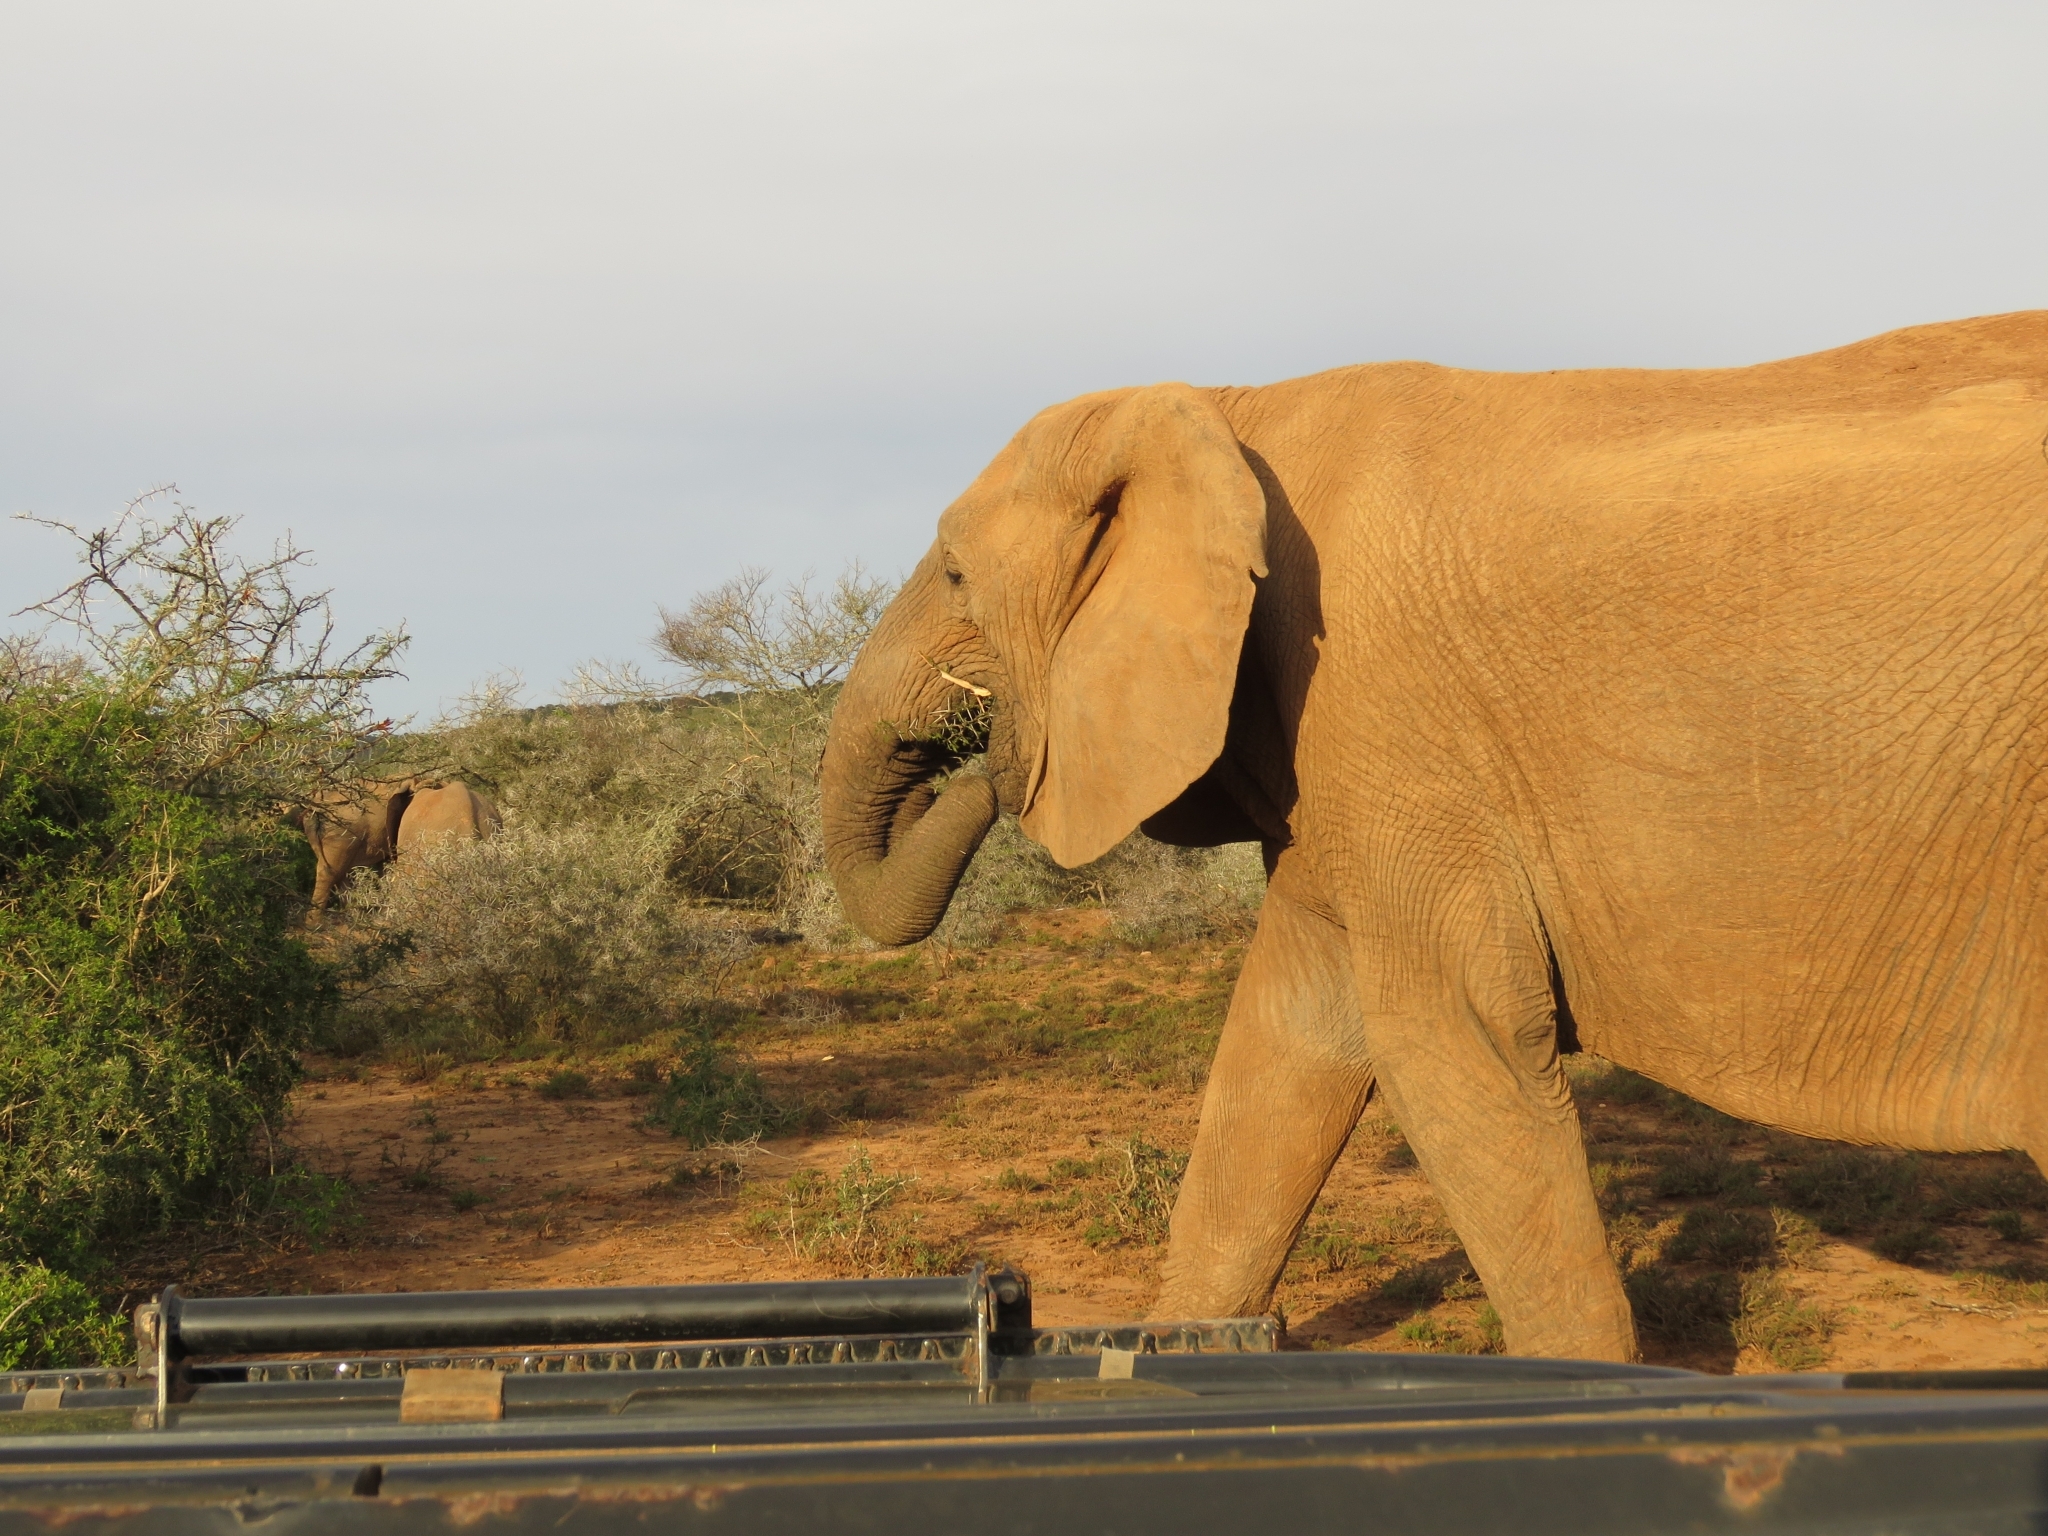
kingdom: Animalia
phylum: Chordata
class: Mammalia
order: Proboscidea
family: Elephantidae
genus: Loxodonta
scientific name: Loxodonta africana
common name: African elephant
